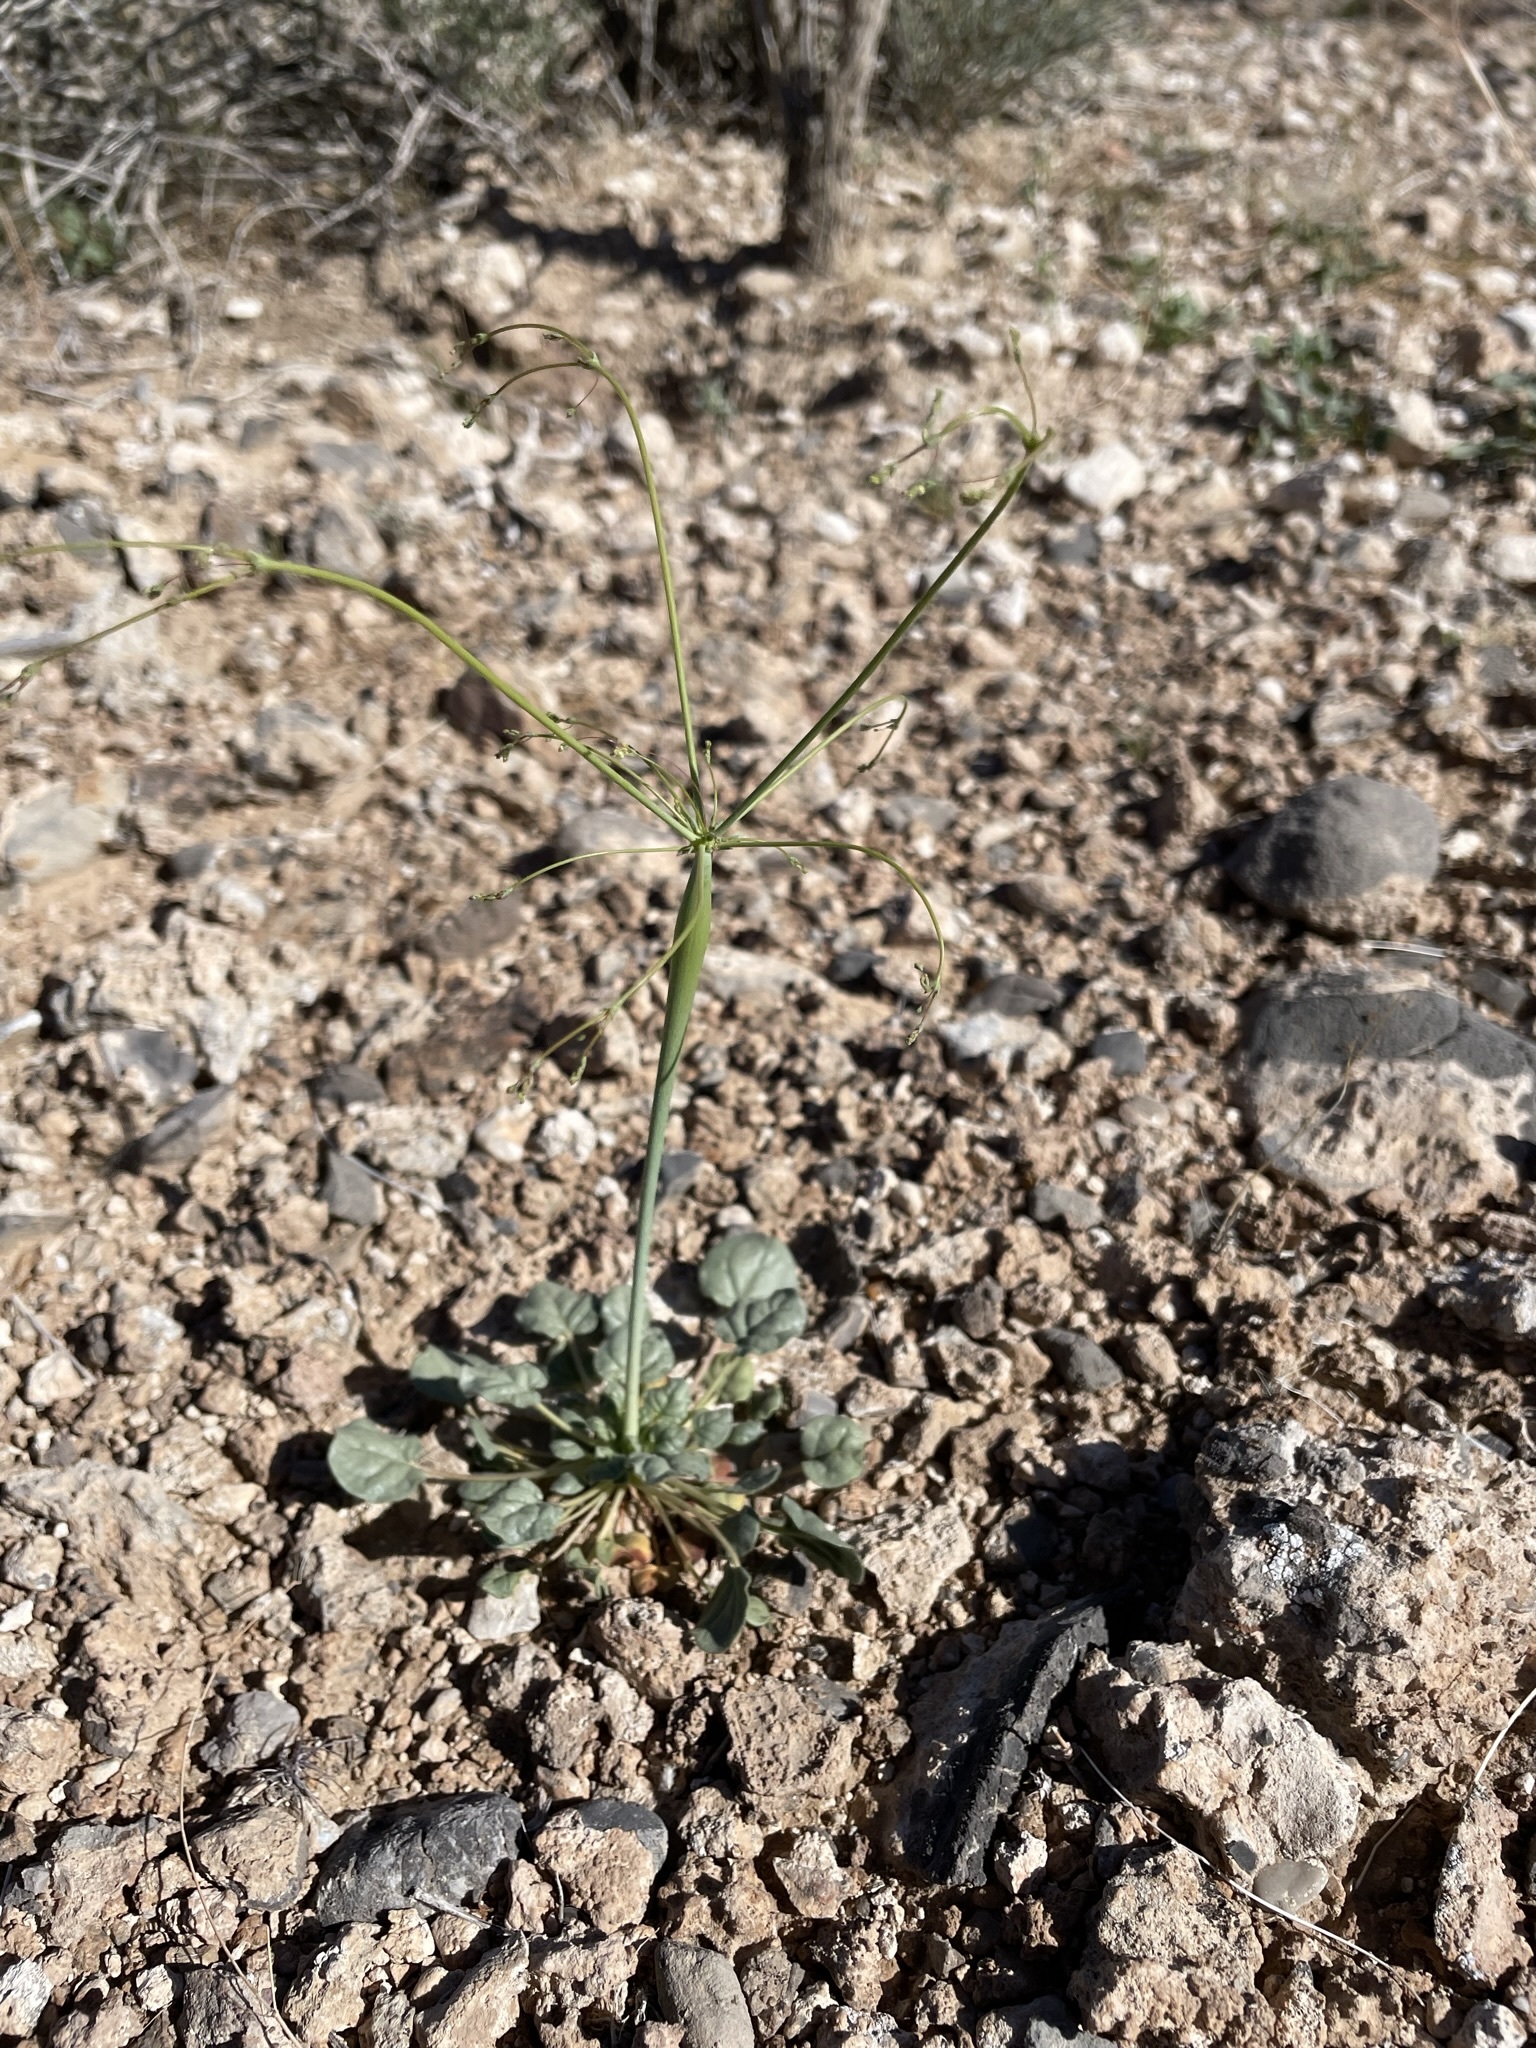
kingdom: Plantae
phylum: Tracheophyta
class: Magnoliopsida
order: Caryophyllales
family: Polygonaceae
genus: Eriogonum
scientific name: Eriogonum trichopes
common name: Little desert trumpet
